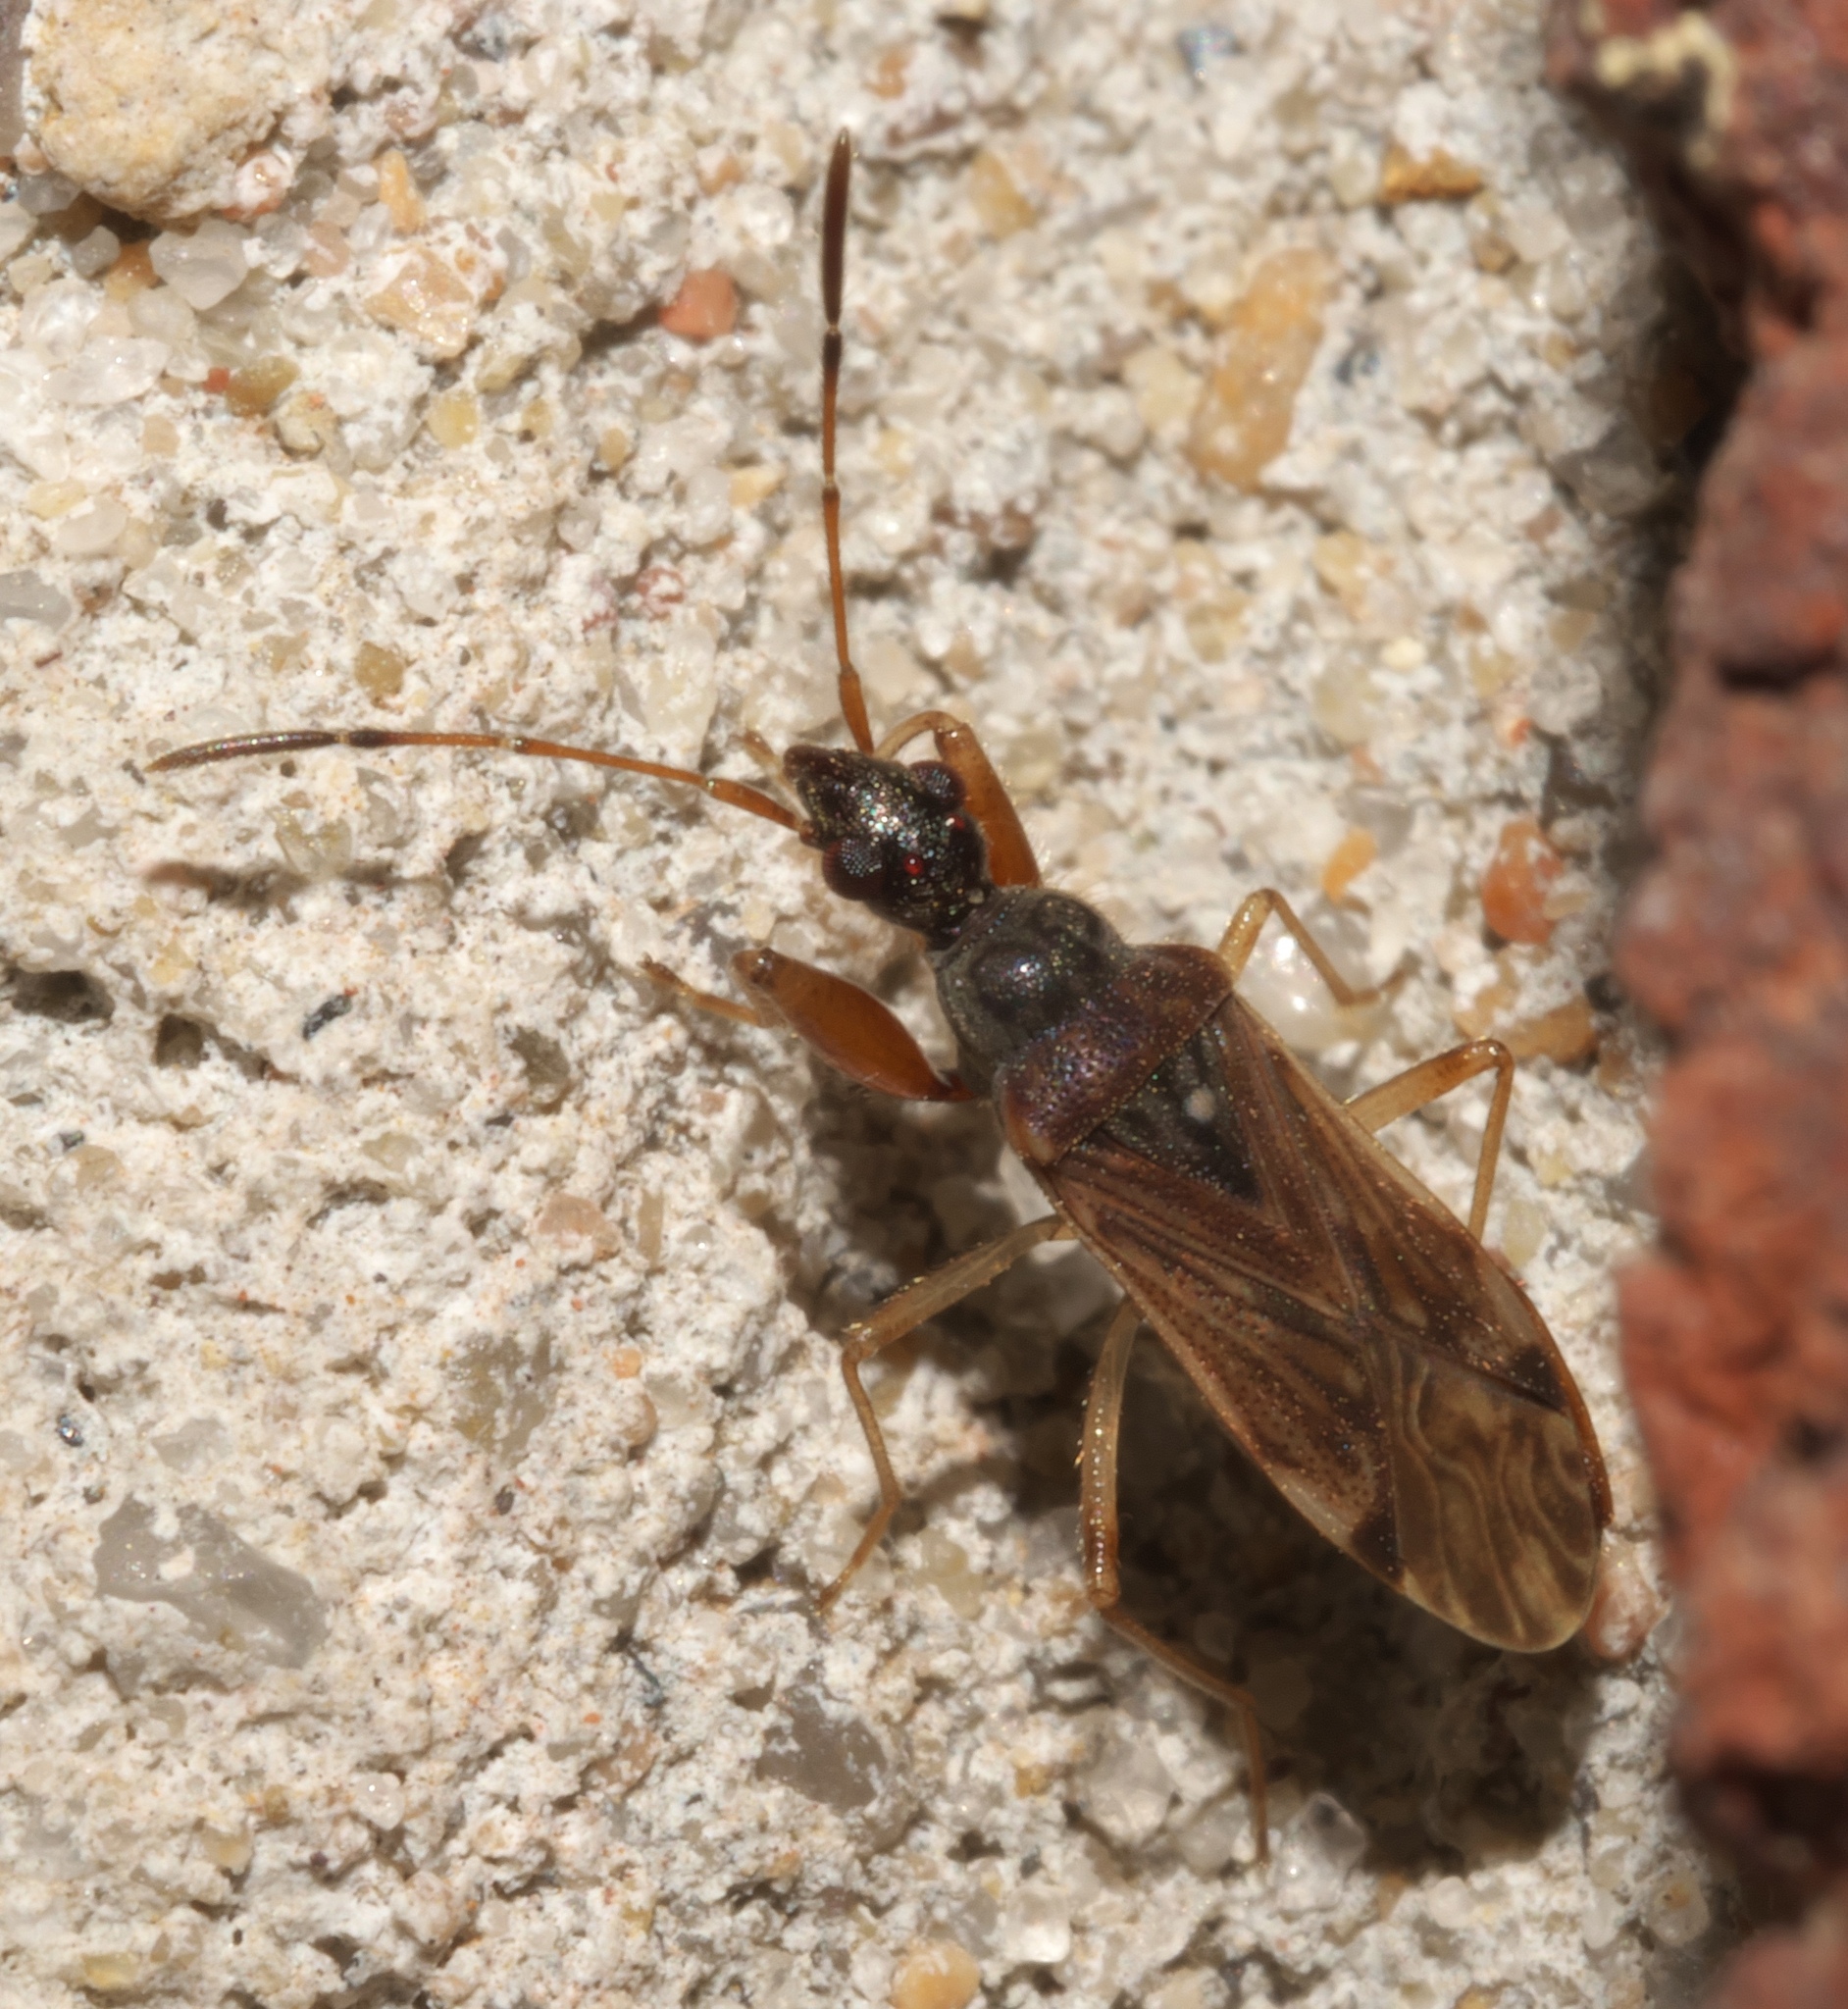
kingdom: Animalia
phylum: Arthropoda
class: Insecta
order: Hemiptera
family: Rhyparochromidae
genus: Heraeus
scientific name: Heraeus plebejus
